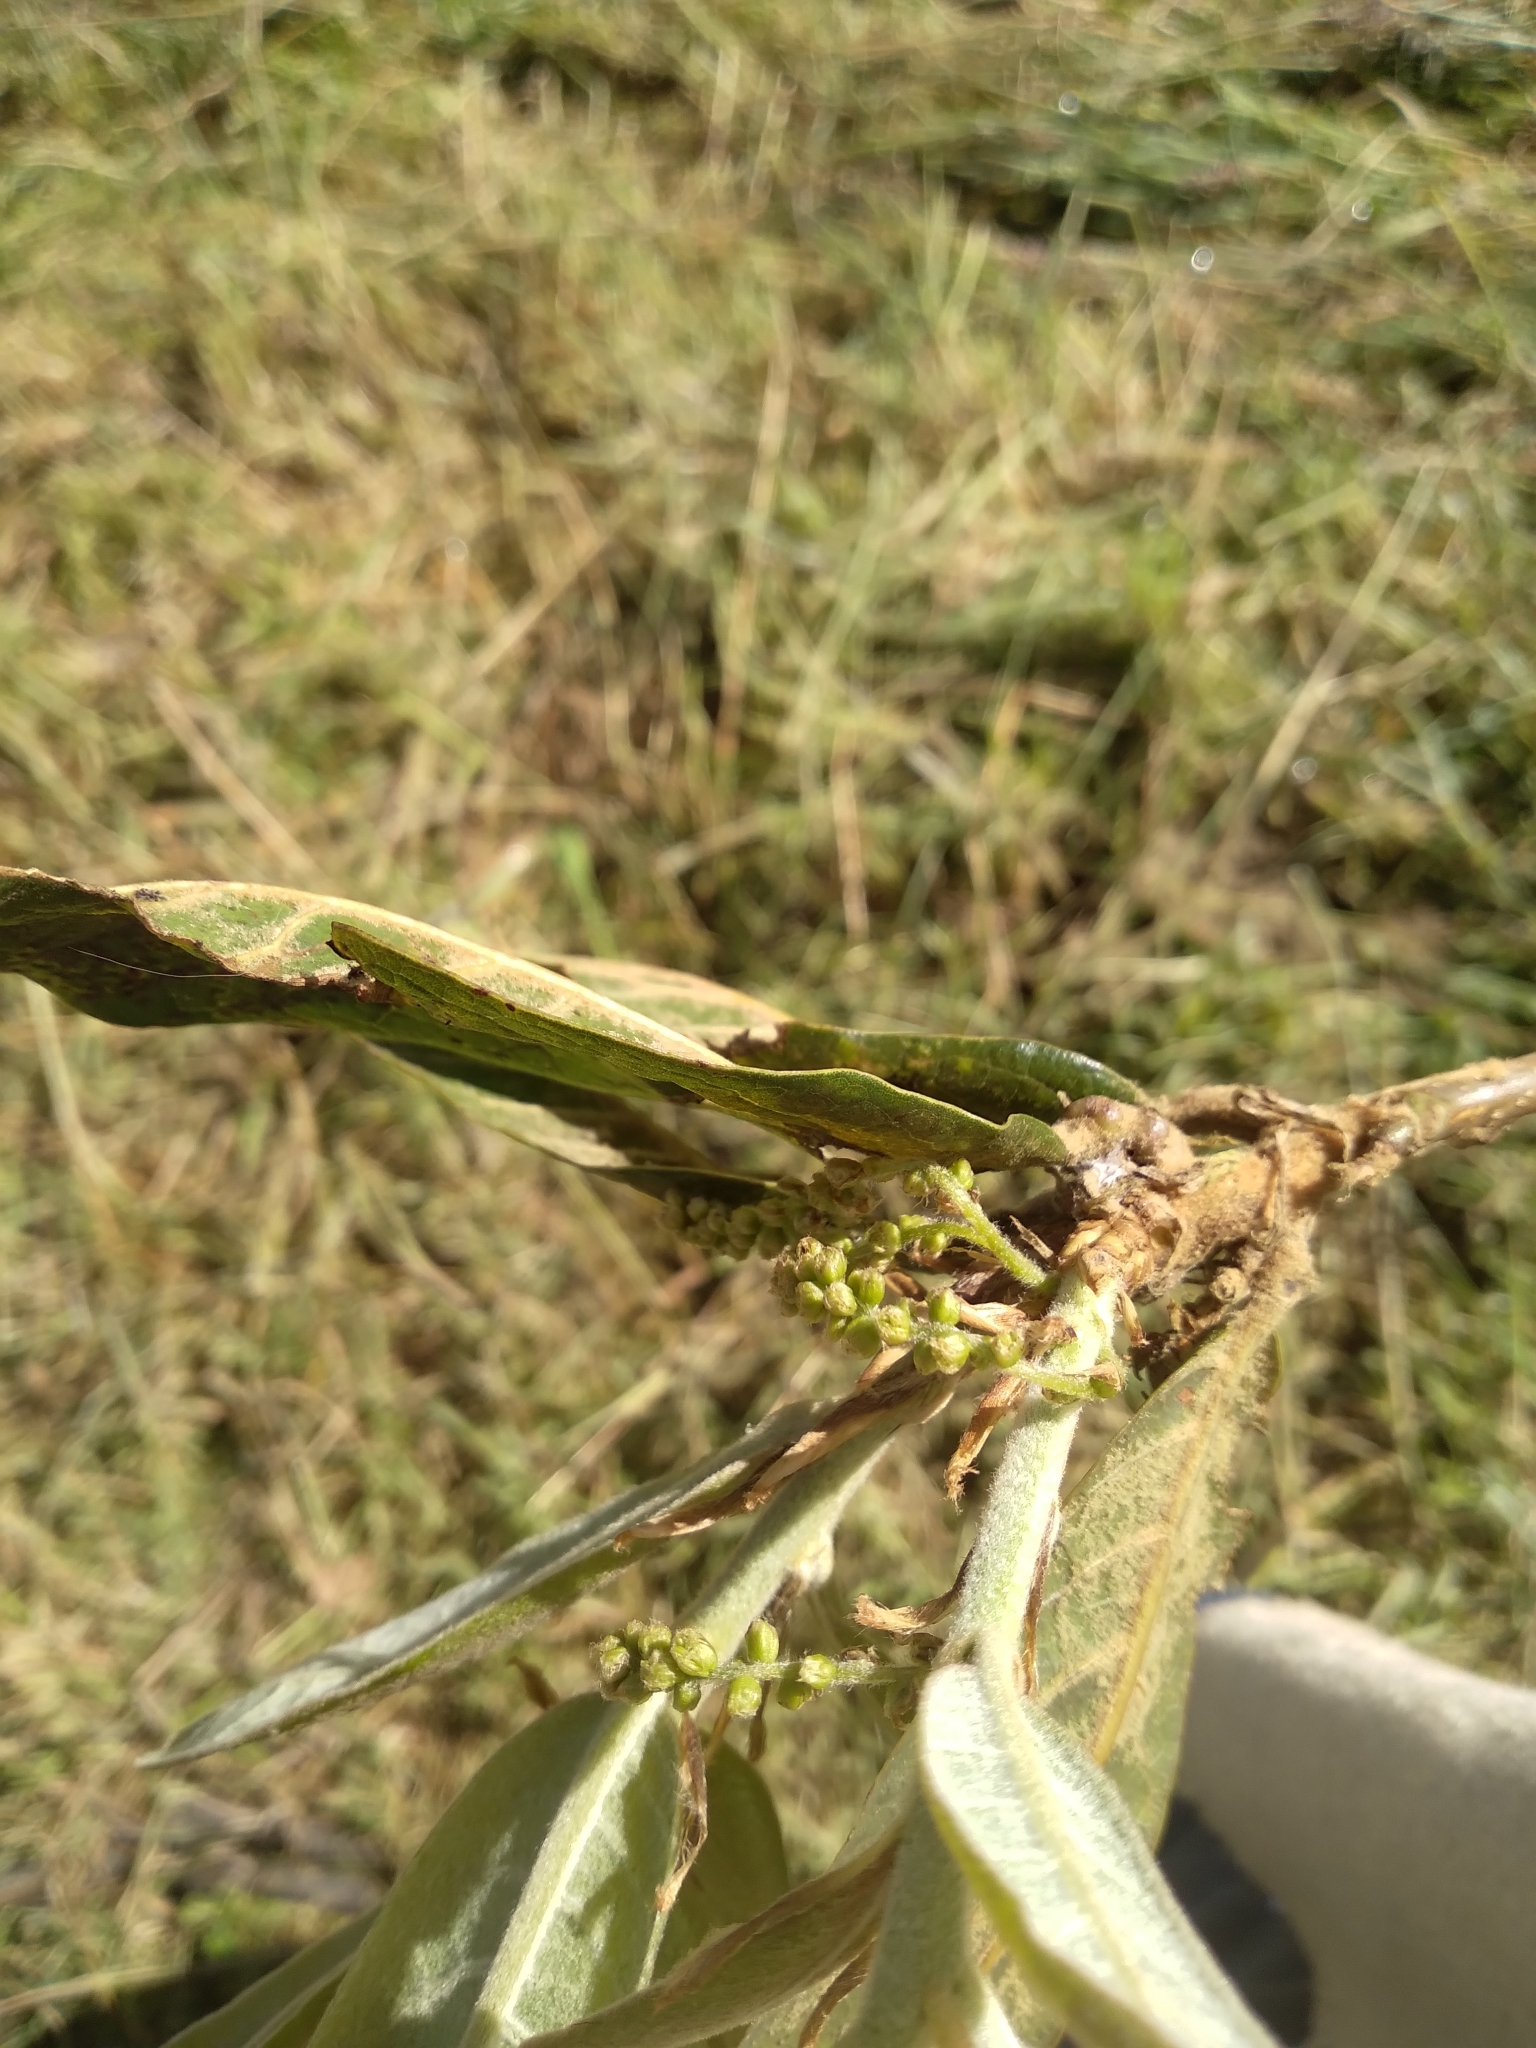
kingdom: Plantae
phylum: Tracheophyta
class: Magnoliopsida
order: Fagales
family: Fagaceae
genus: Quercus
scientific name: Quercus humboldtii
